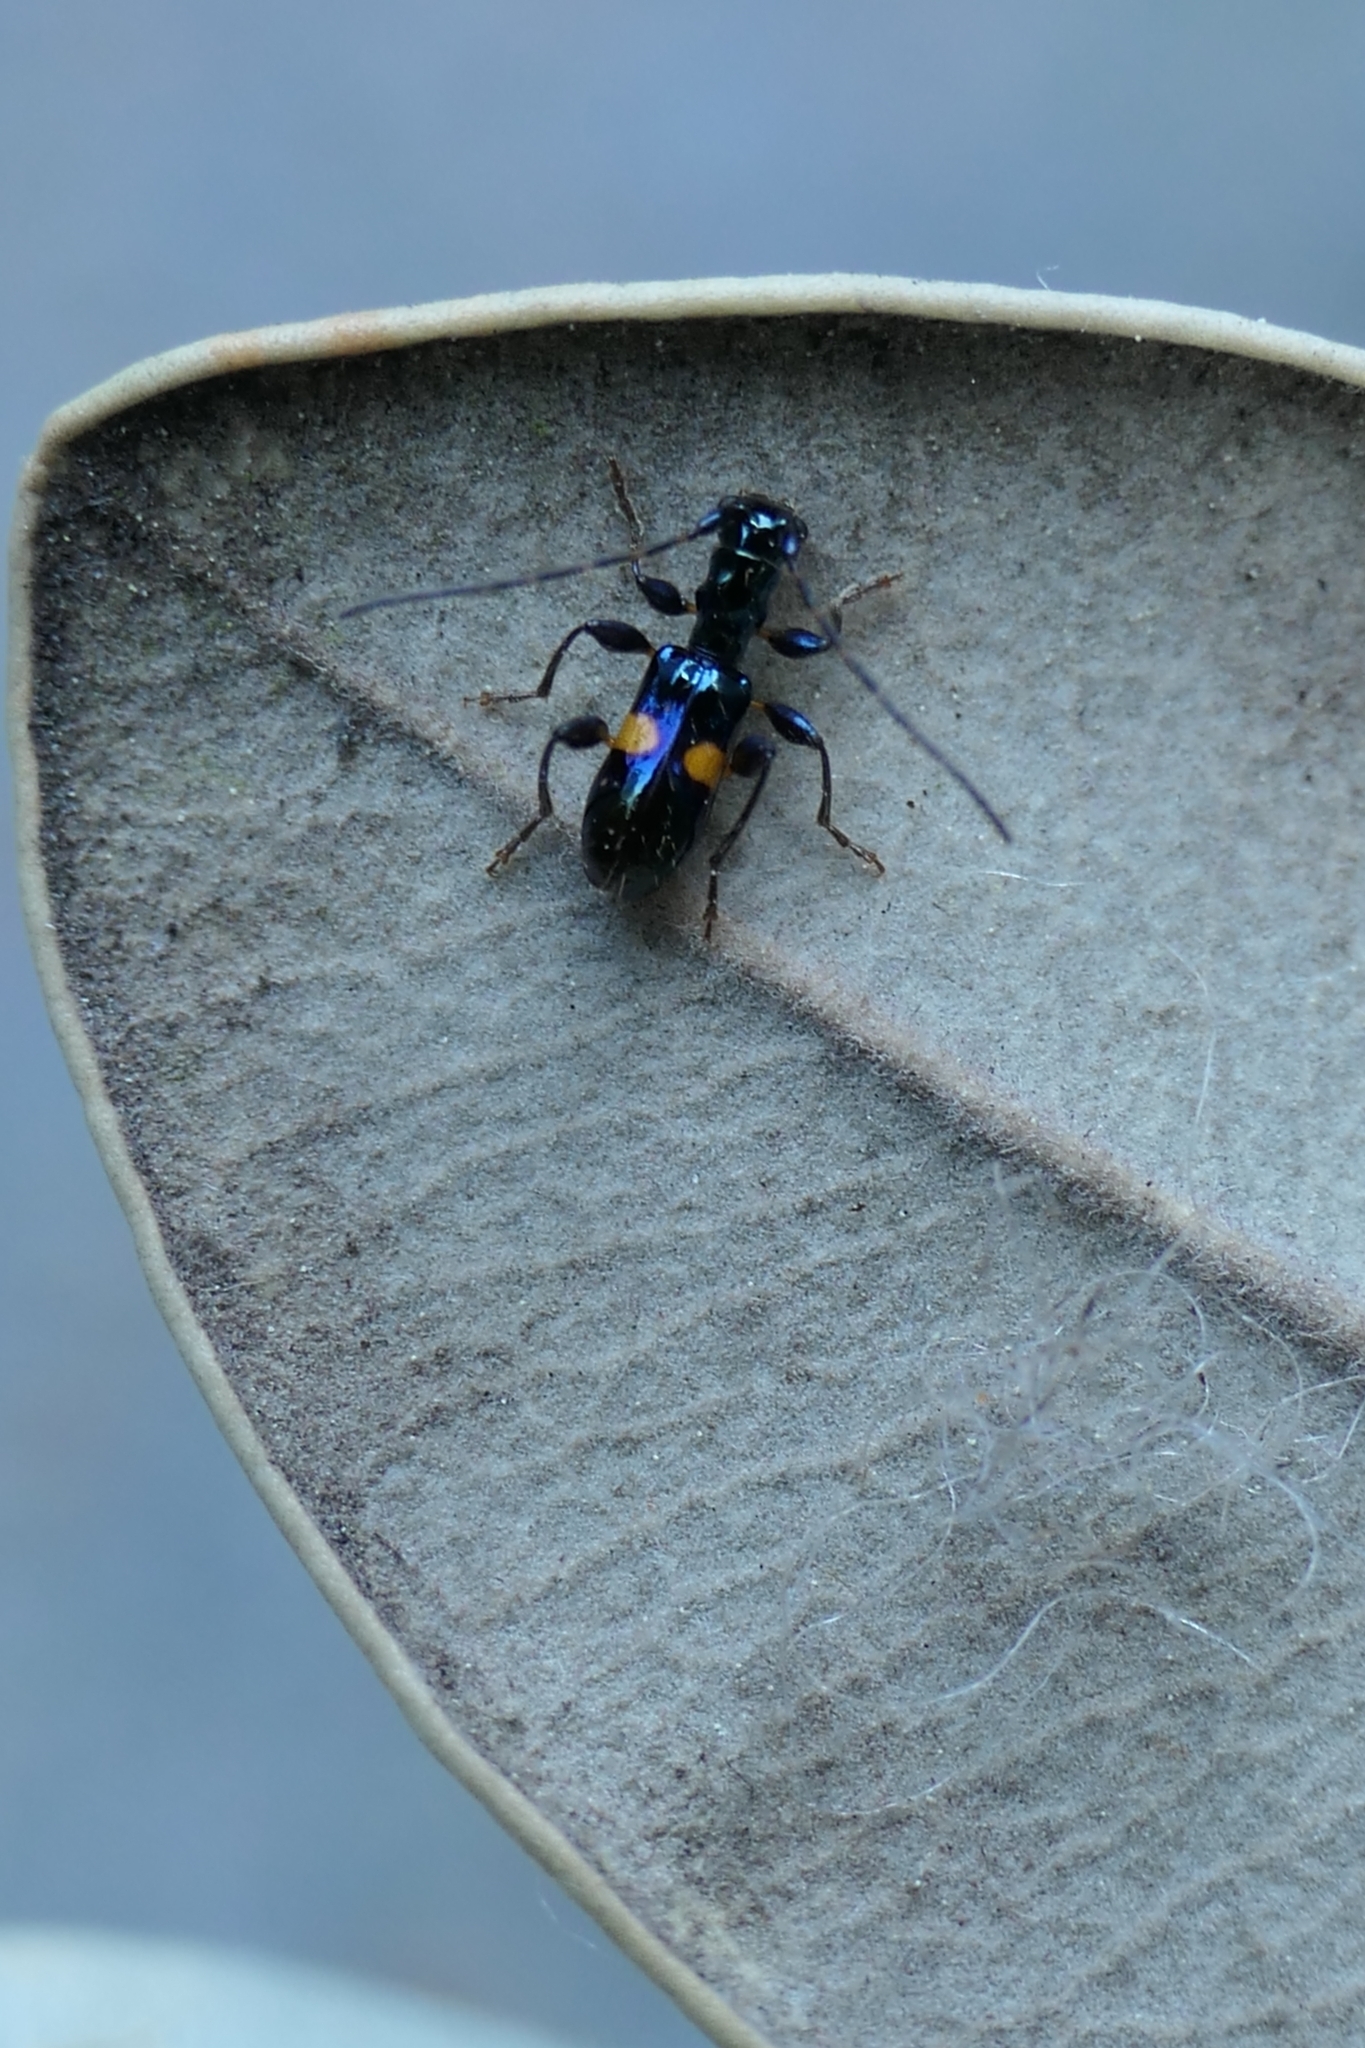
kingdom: Animalia
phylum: Arthropoda
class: Insecta
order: Coleoptera
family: Cerambycidae
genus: Zorion
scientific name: Zorion guttigerum
